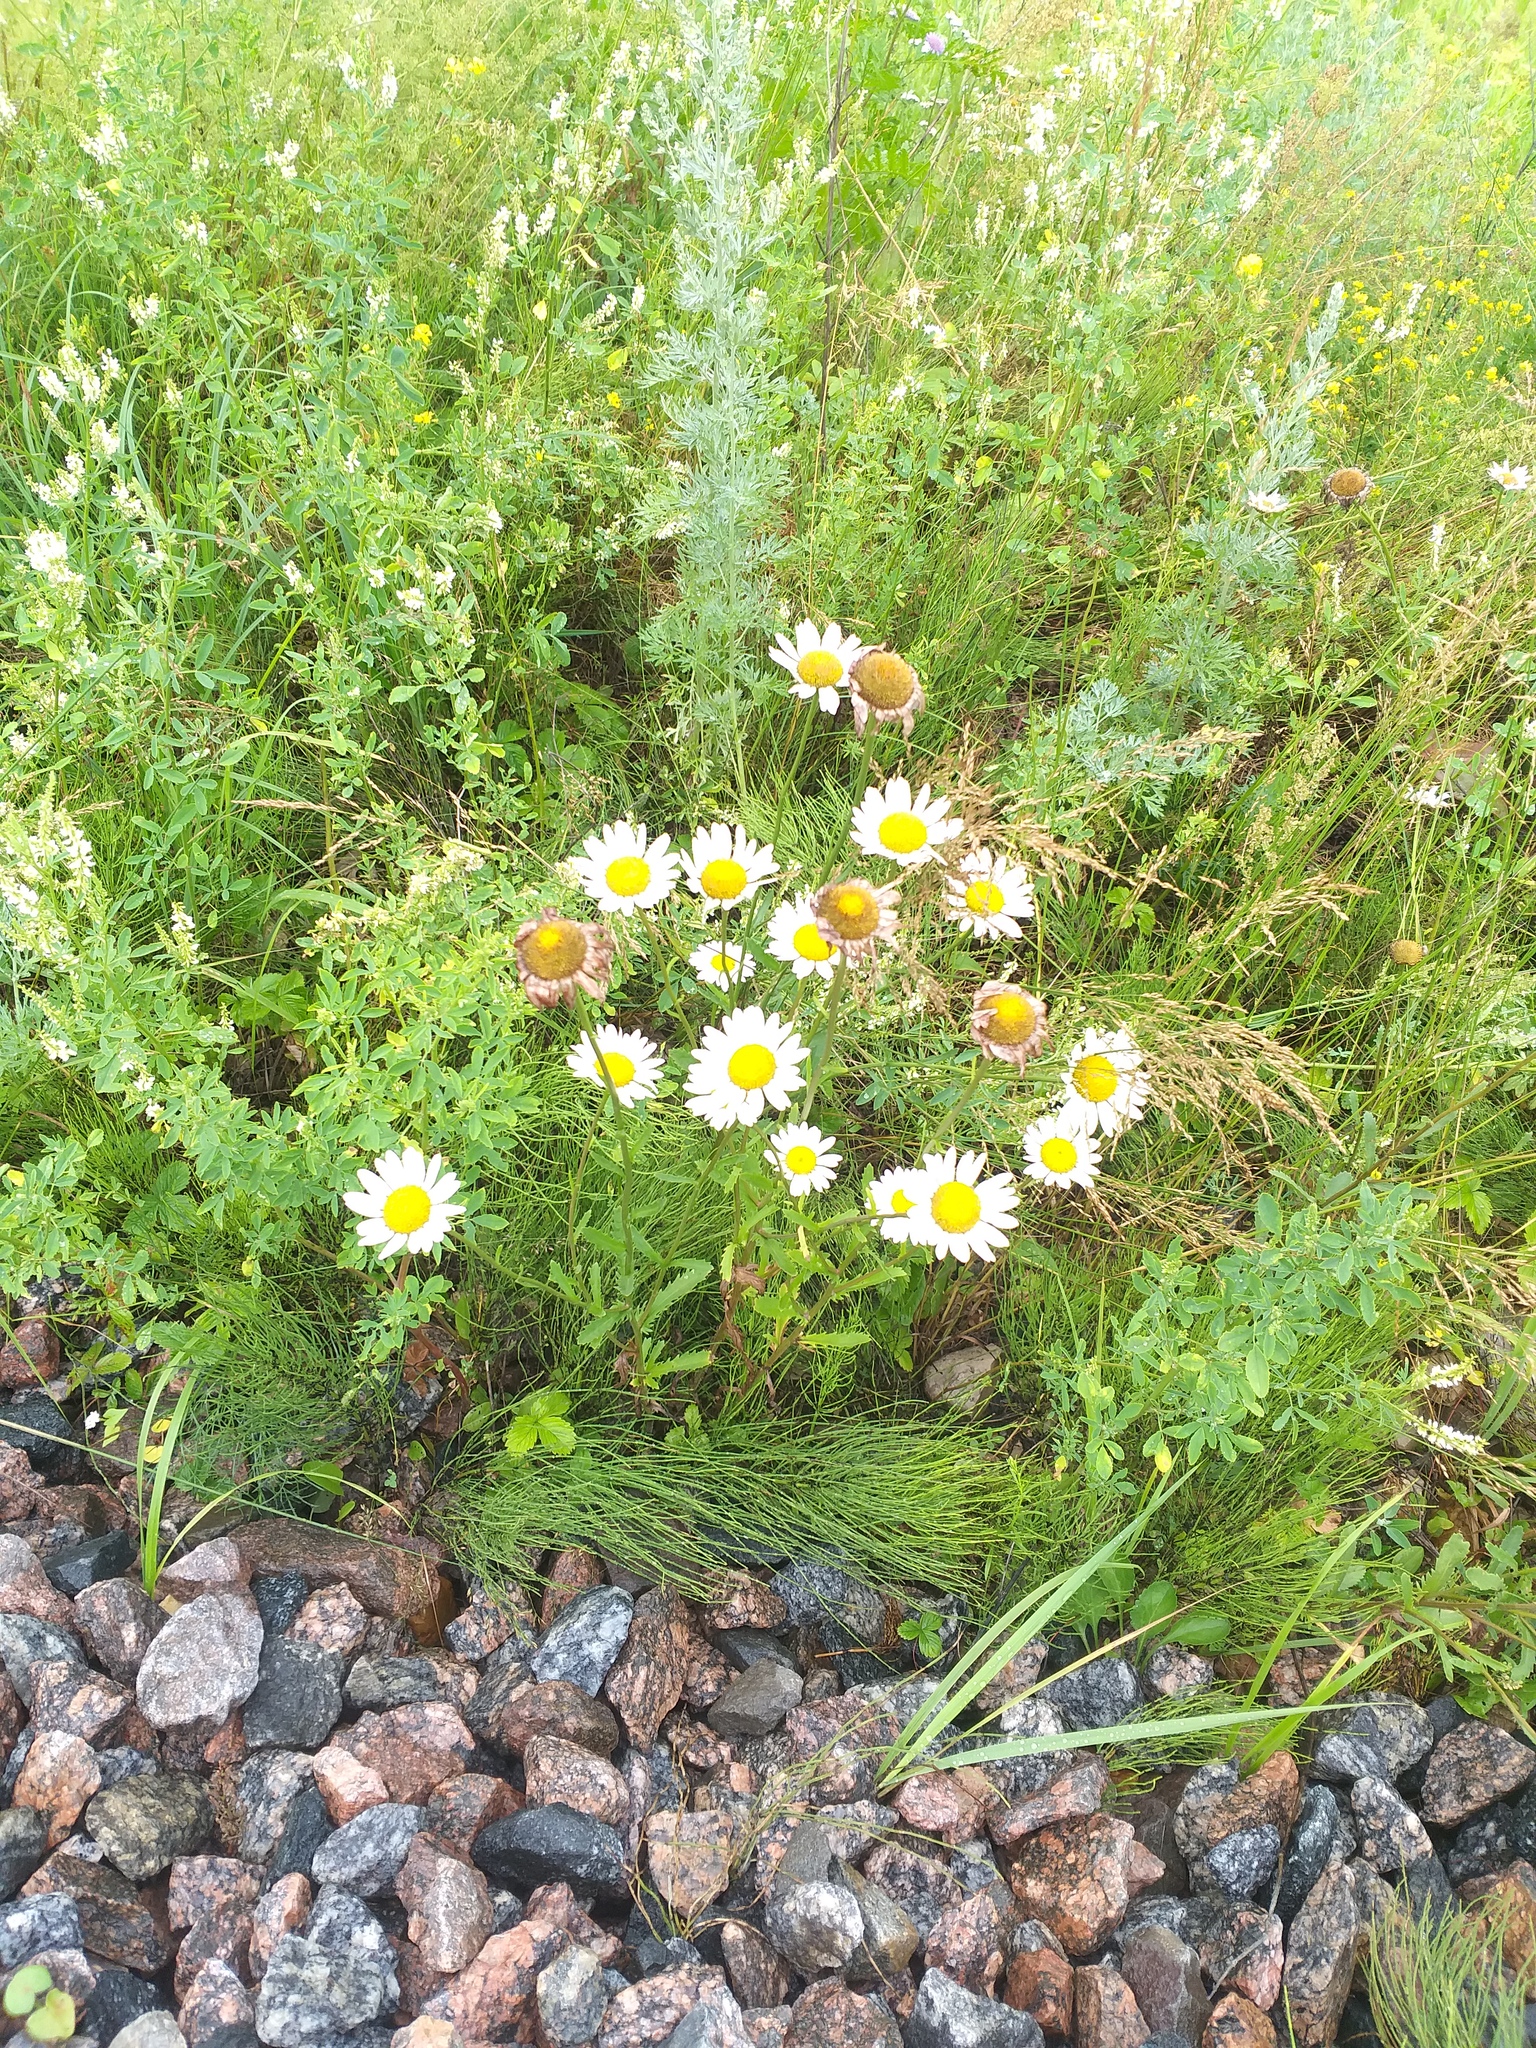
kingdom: Plantae
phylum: Tracheophyta
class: Magnoliopsida
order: Asterales
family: Asteraceae
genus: Leucanthemum
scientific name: Leucanthemum vulgare
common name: Oxeye daisy
